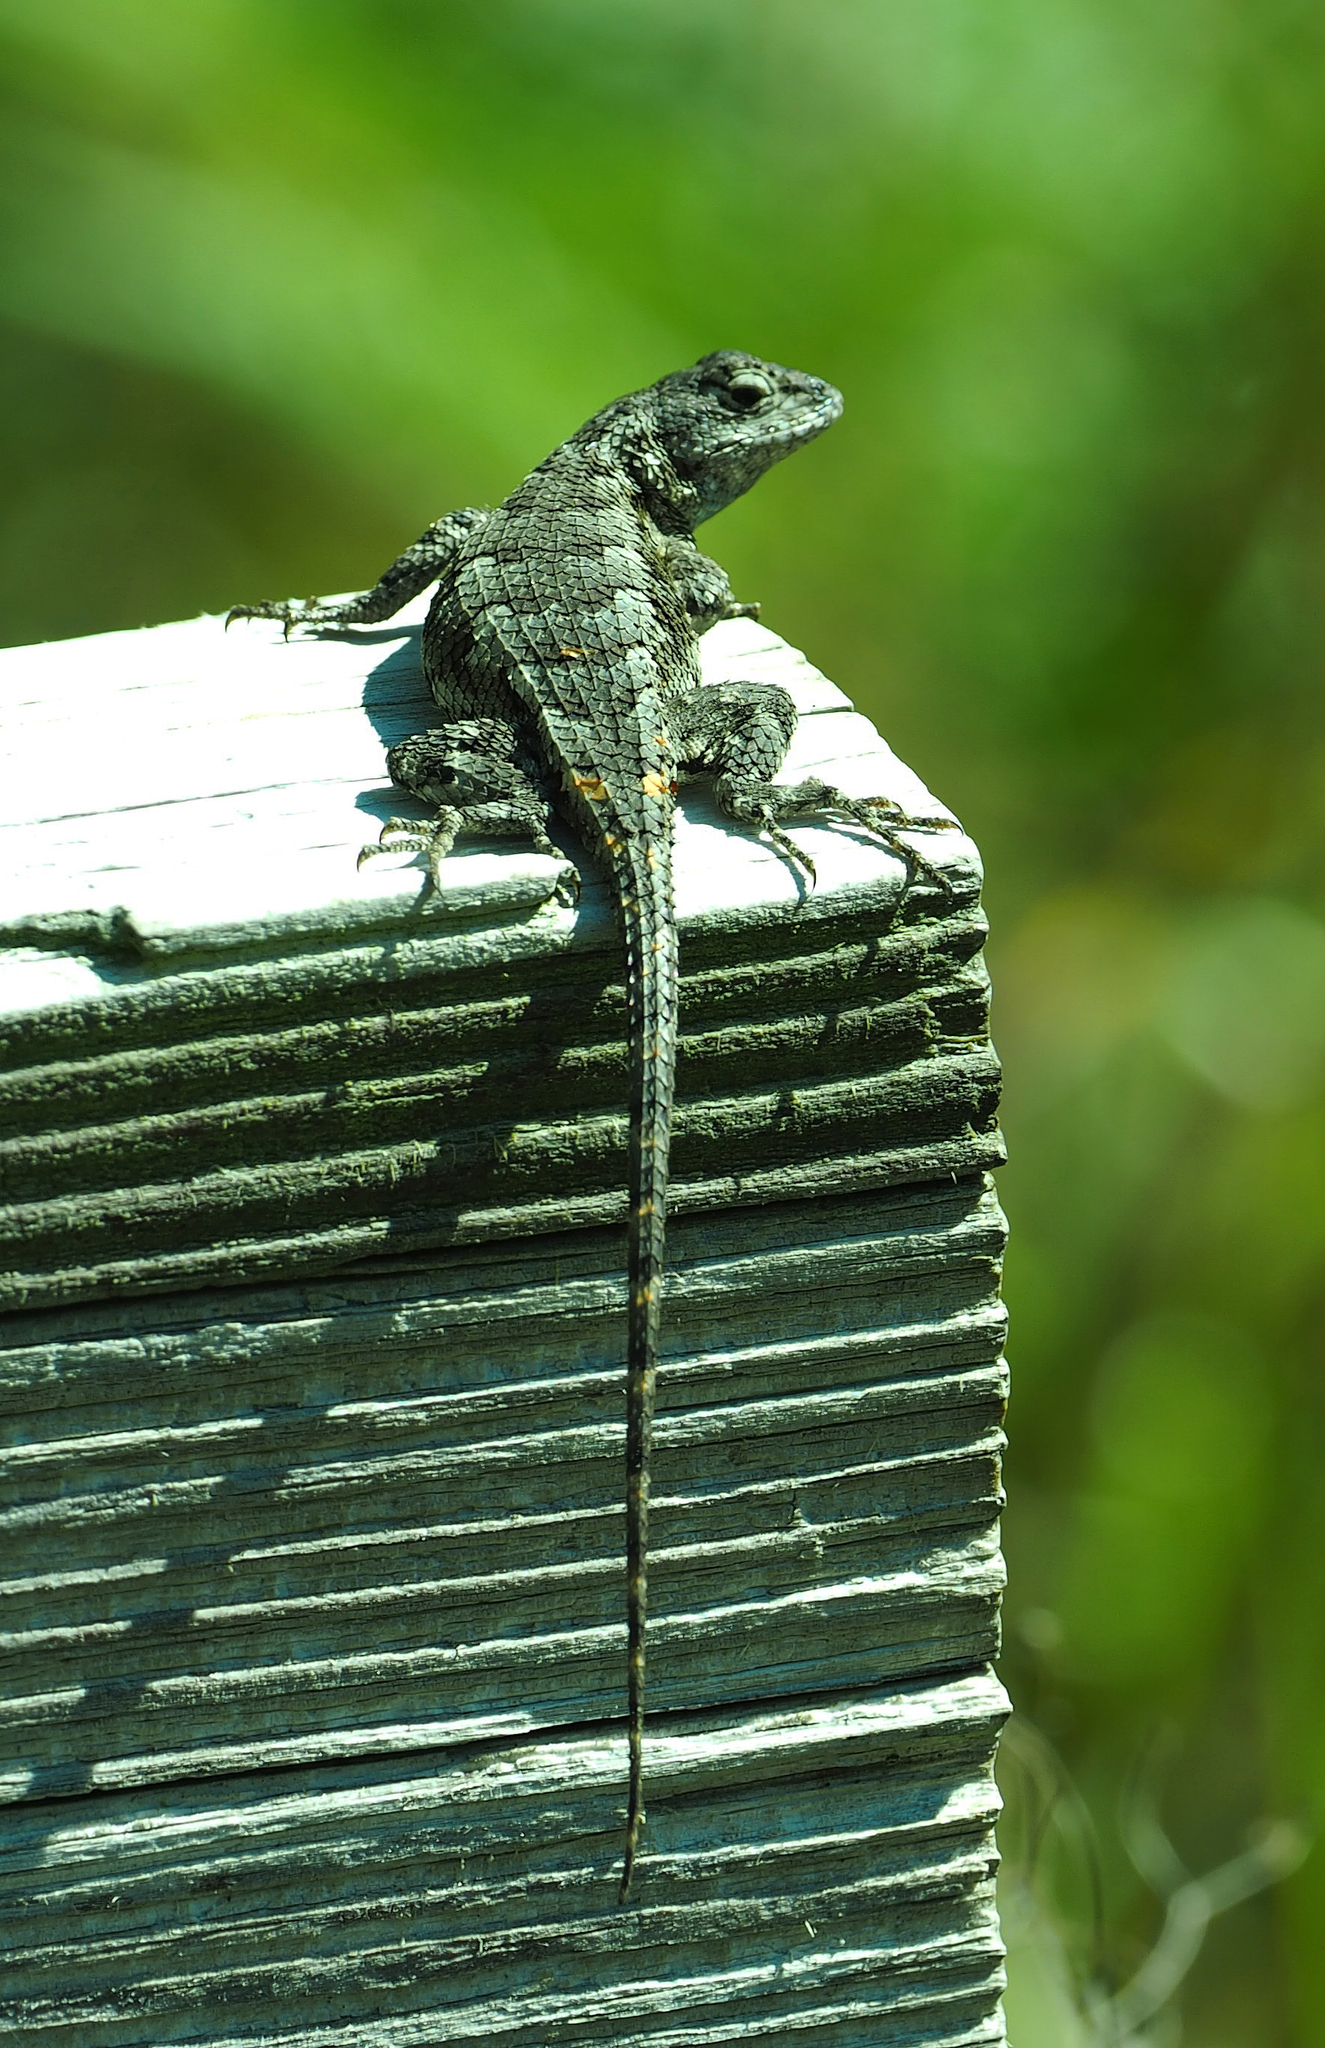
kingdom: Animalia
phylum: Chordata
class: Squamata
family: Phrynosomatidae
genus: Sceloporus
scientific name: Sceloporus undulatus
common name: Eastern fence lizard
